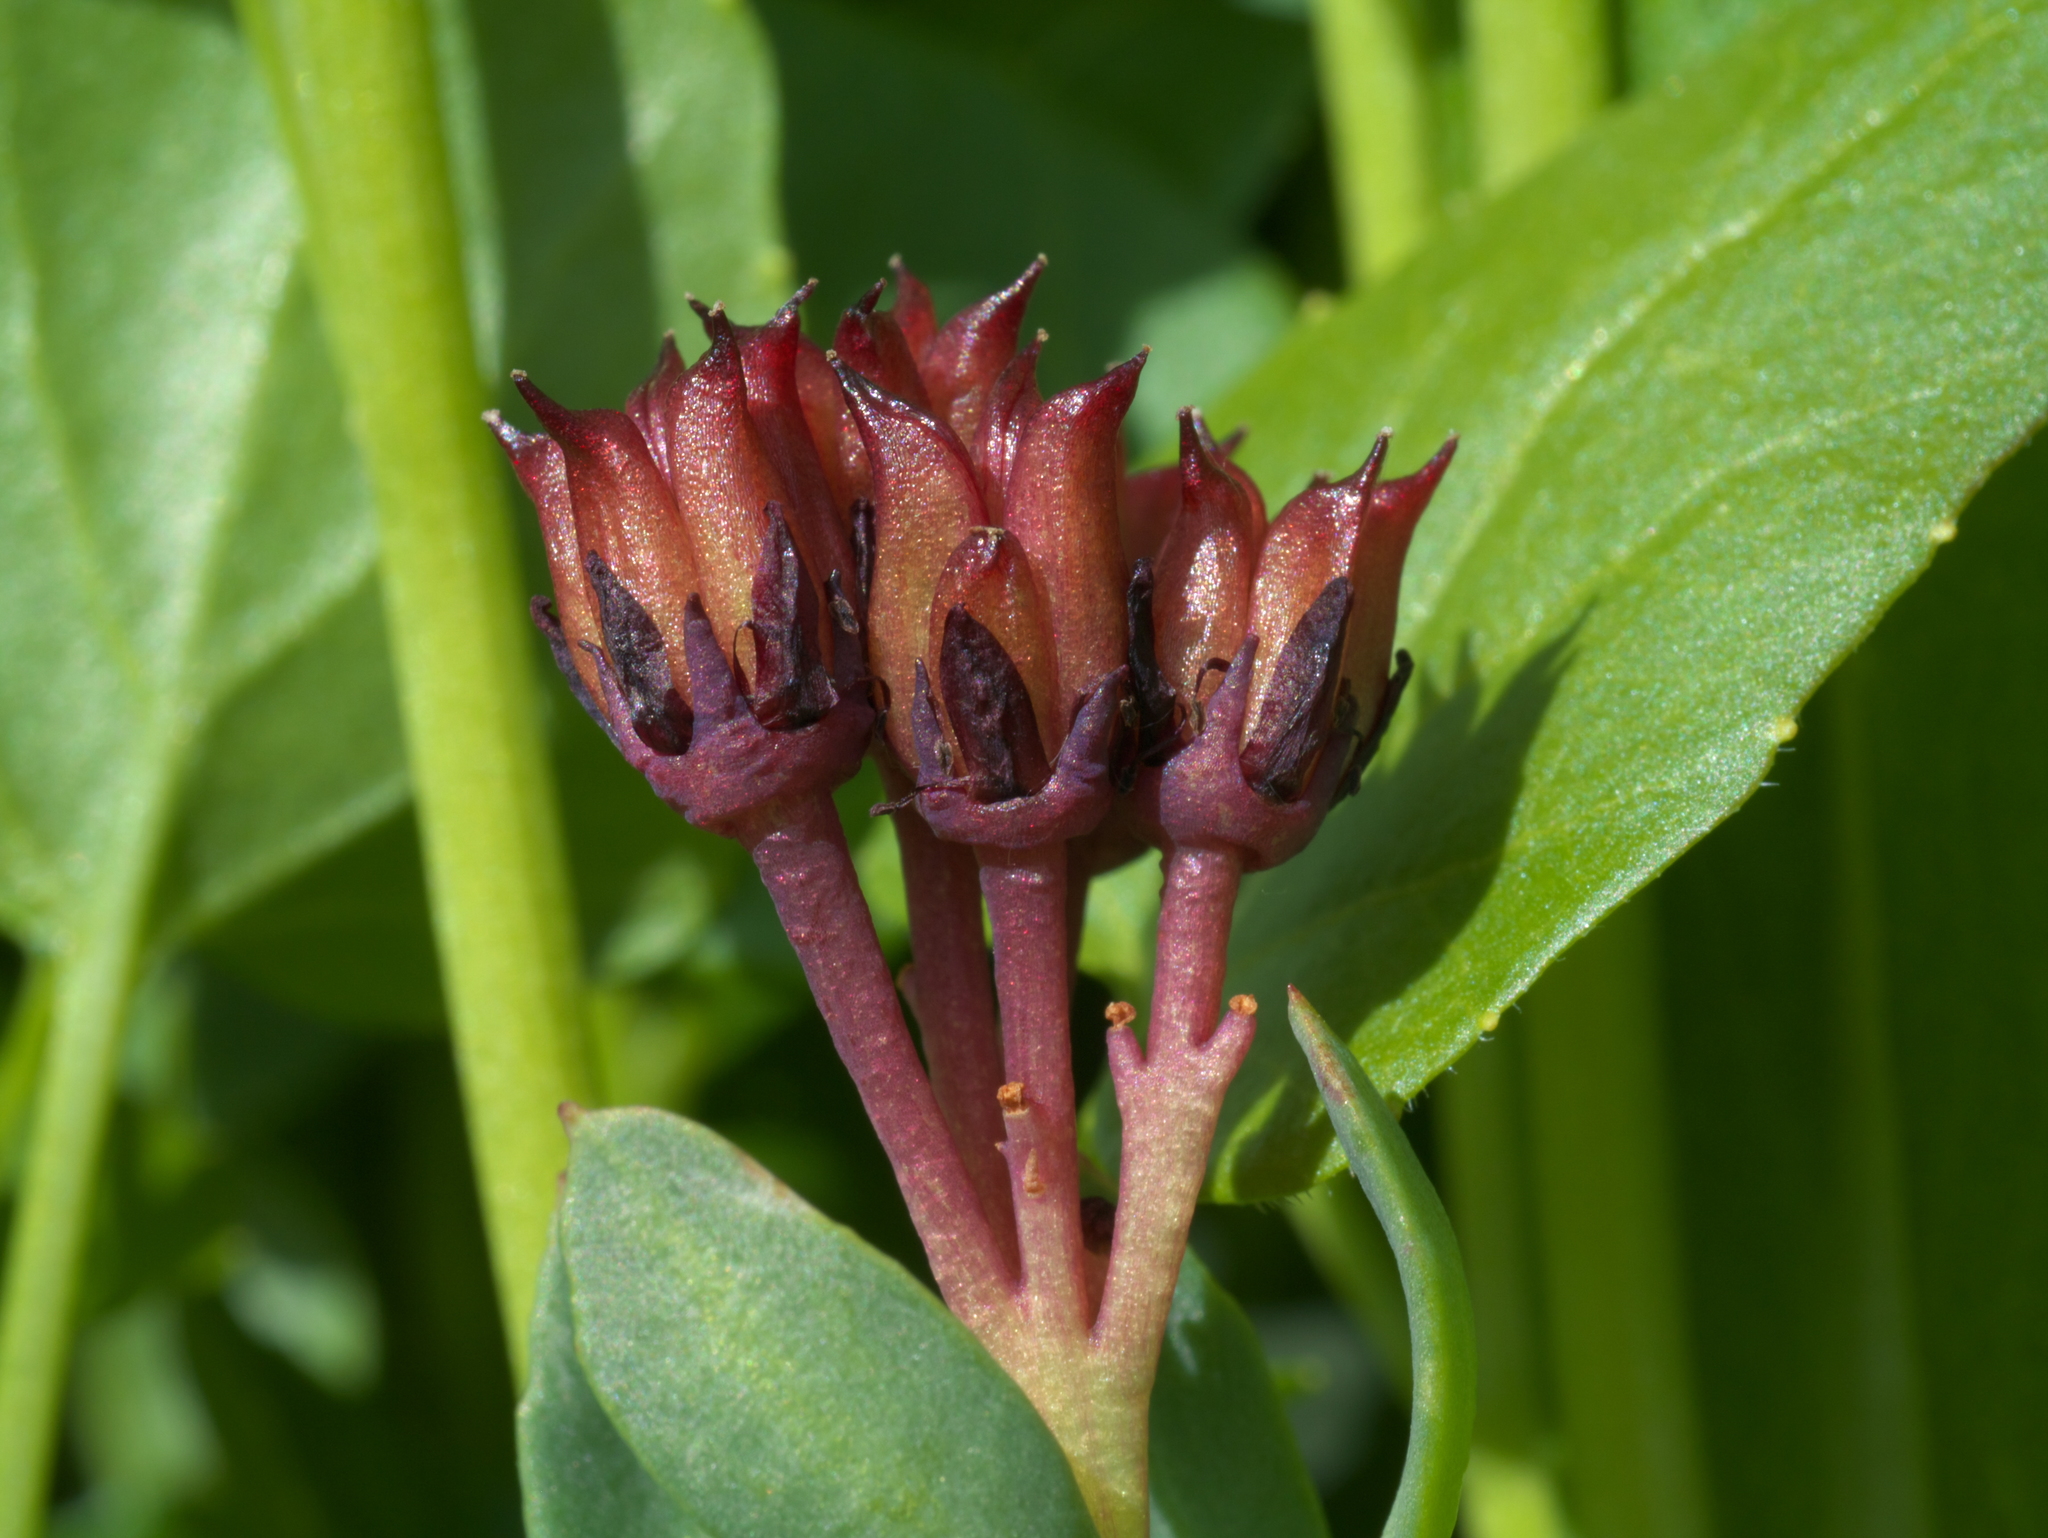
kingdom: Plantae
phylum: Tracheophyta
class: Magnoliopsida
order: Saxifragales
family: Crassulaceae
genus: Rhodiola
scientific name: Rhodiola integrifolia
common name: Western roseroot
